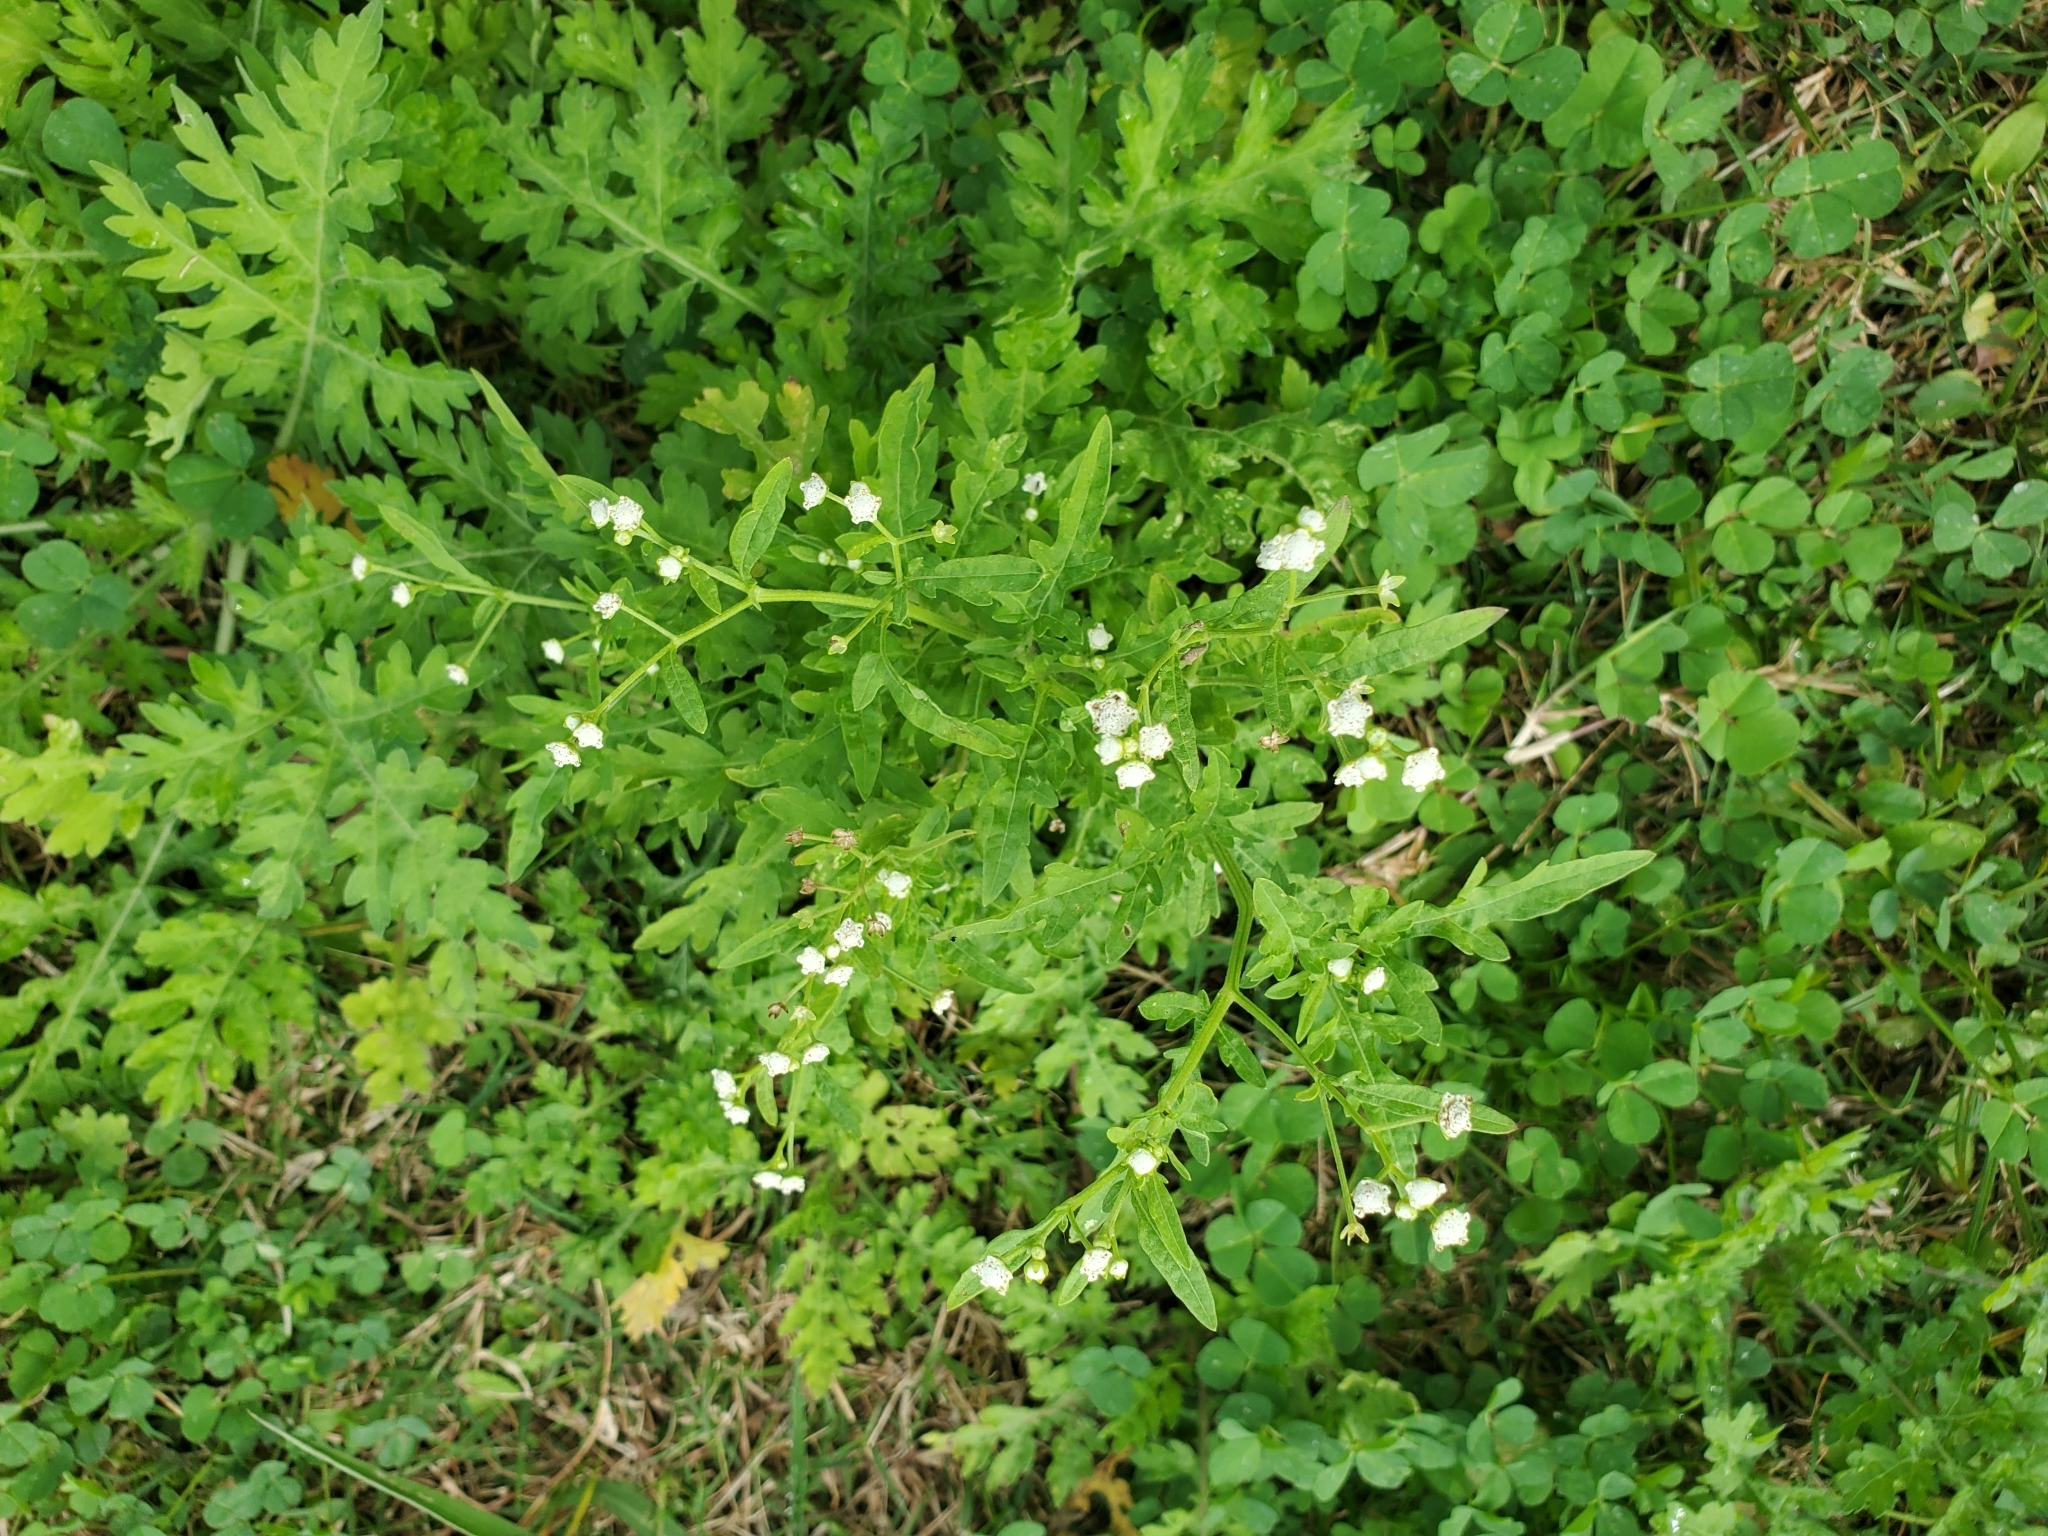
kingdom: Plantae
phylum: Tracheophyta
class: Magnoliopsida
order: Asterales
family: Asteraceae
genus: Parthenium
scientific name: Parthenium hysterophorus
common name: Santa maria feverfew
